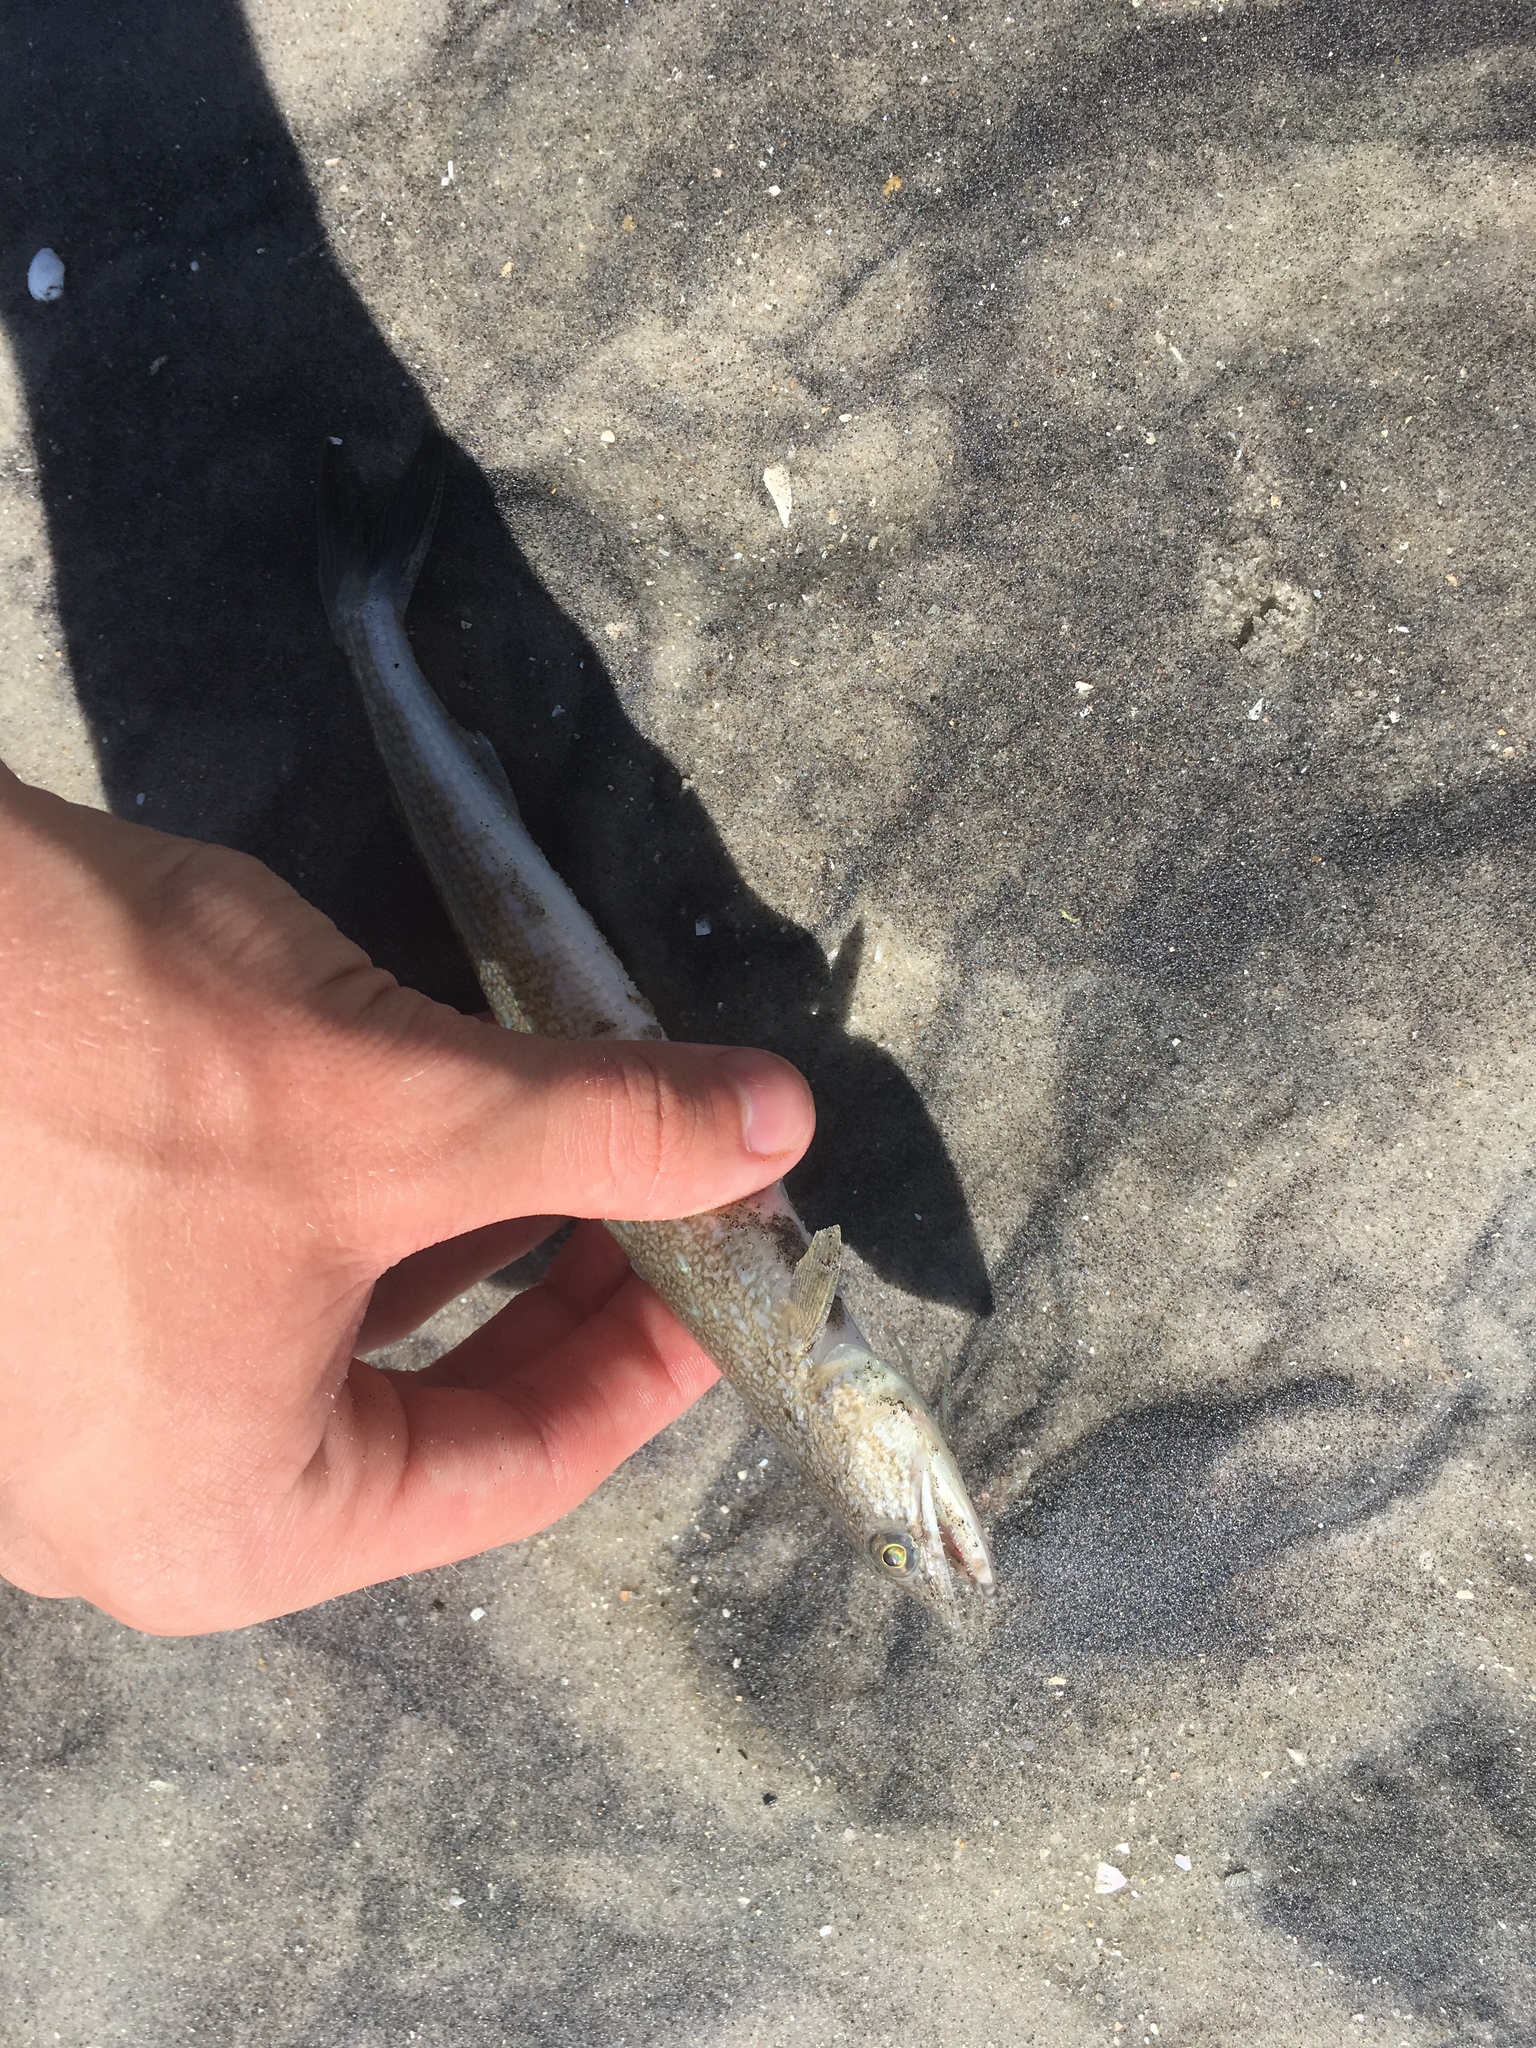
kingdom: Animalia
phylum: Chordata
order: Aulopiformes
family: Synodontidae
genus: Synodus
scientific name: Synodus foetens
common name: Inshore lizardfish
